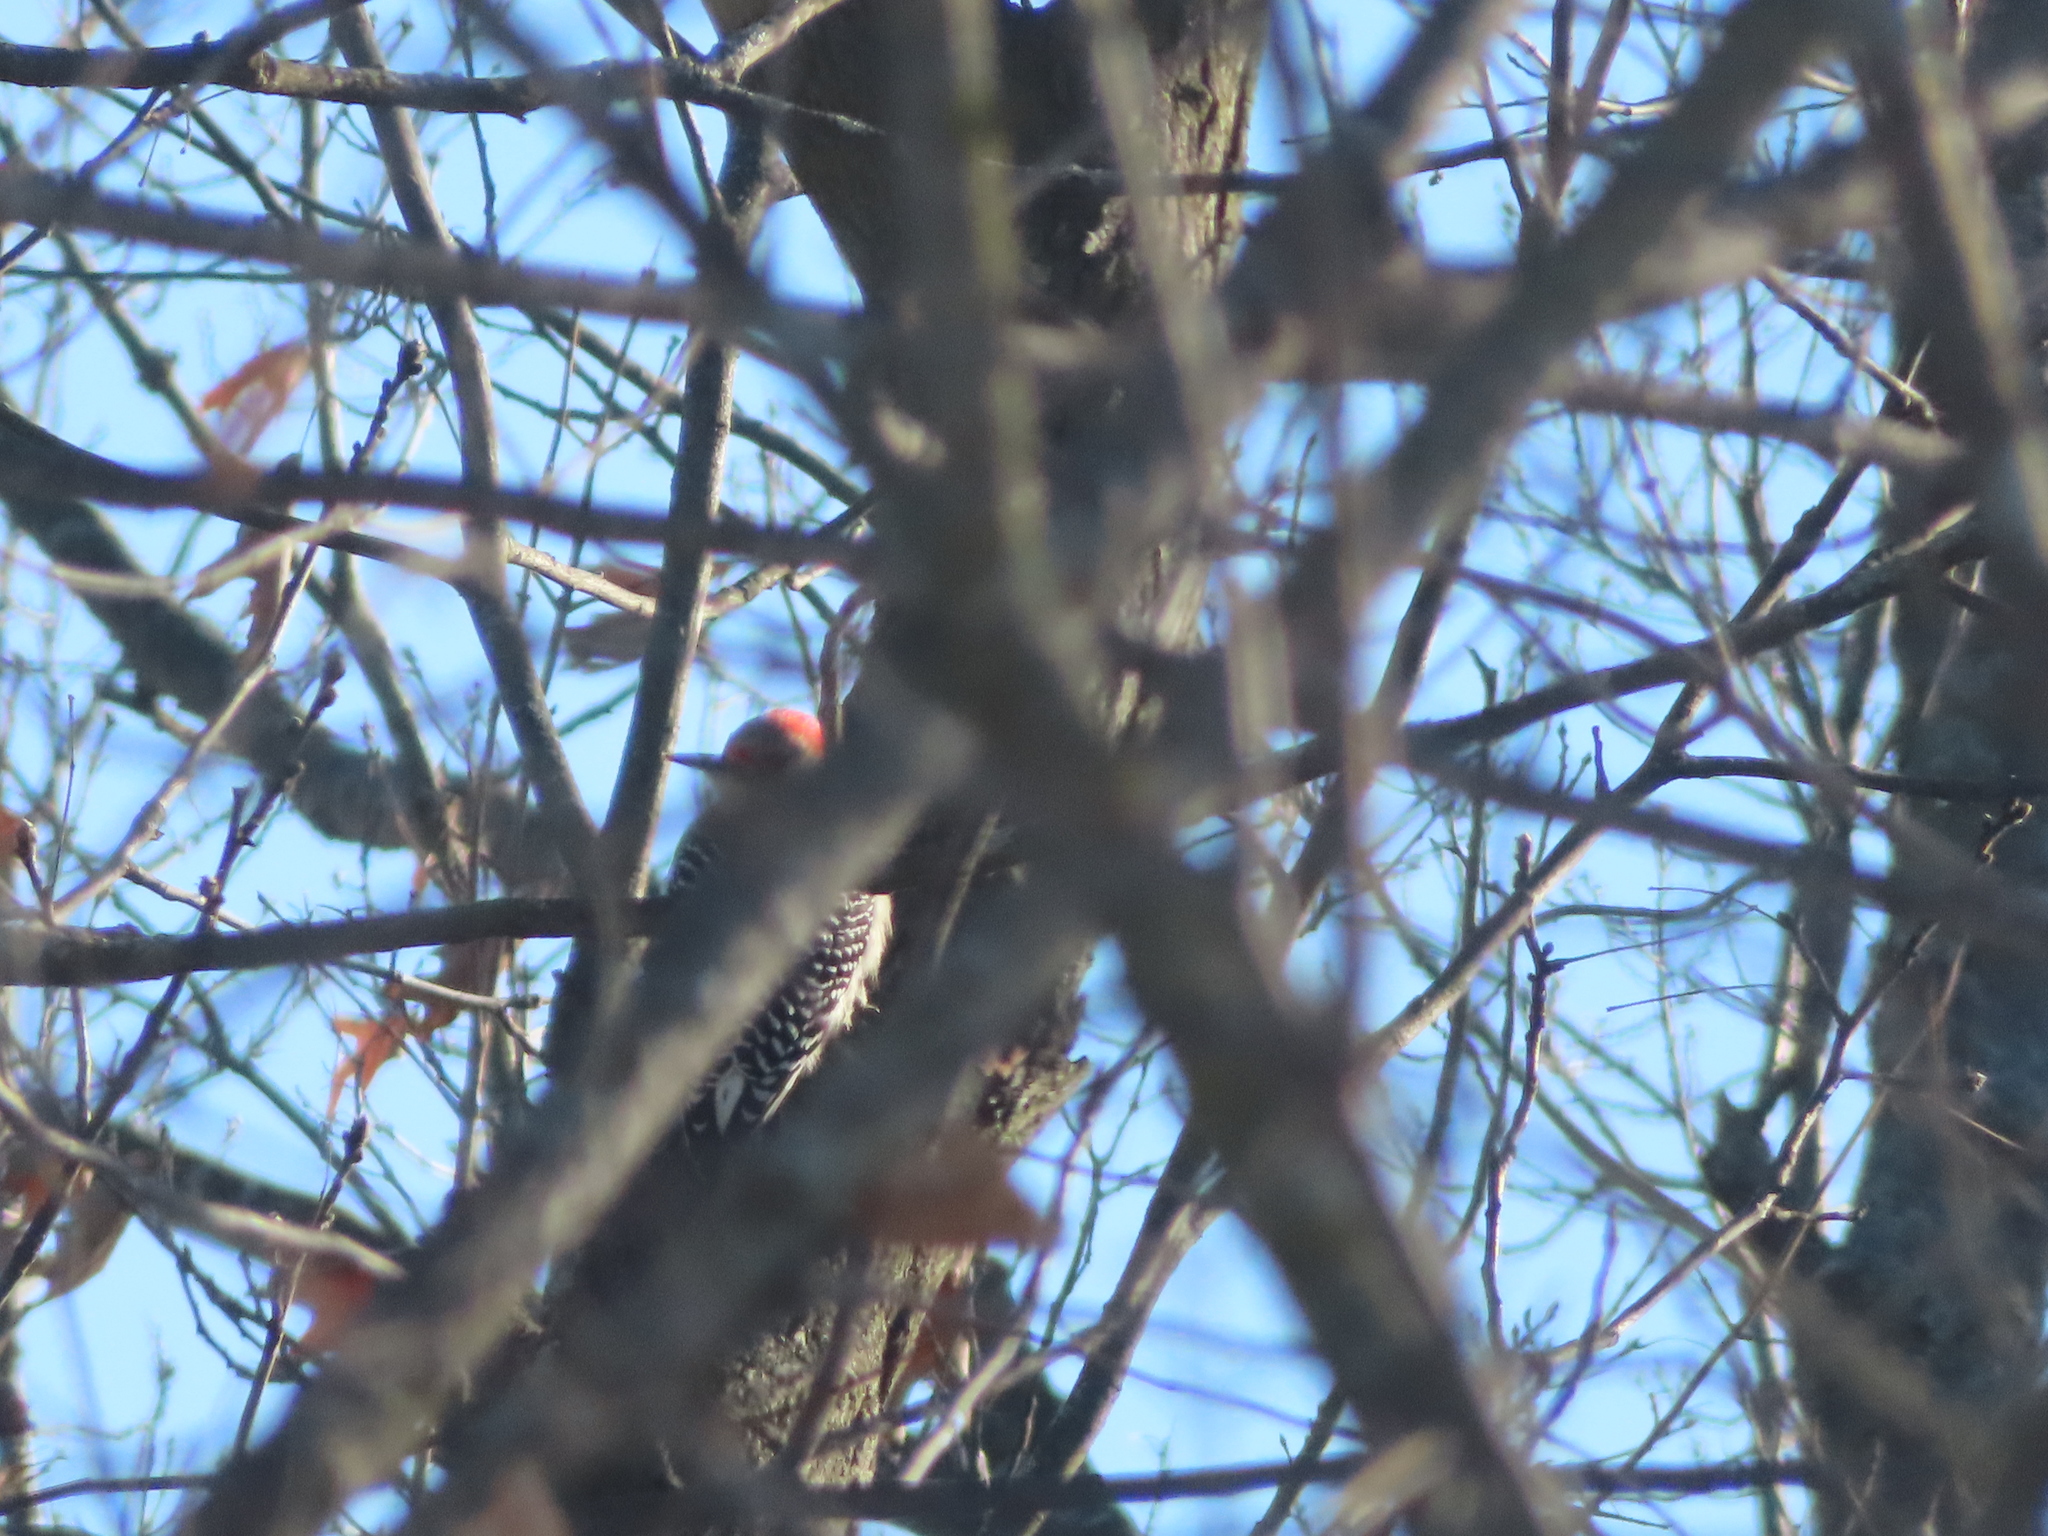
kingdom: Animalia
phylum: Chordata
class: Aves
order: Piciformes
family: Picidae
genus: Melanerpes
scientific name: Melanerpes carolinus
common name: Red-bellied woodpecker
